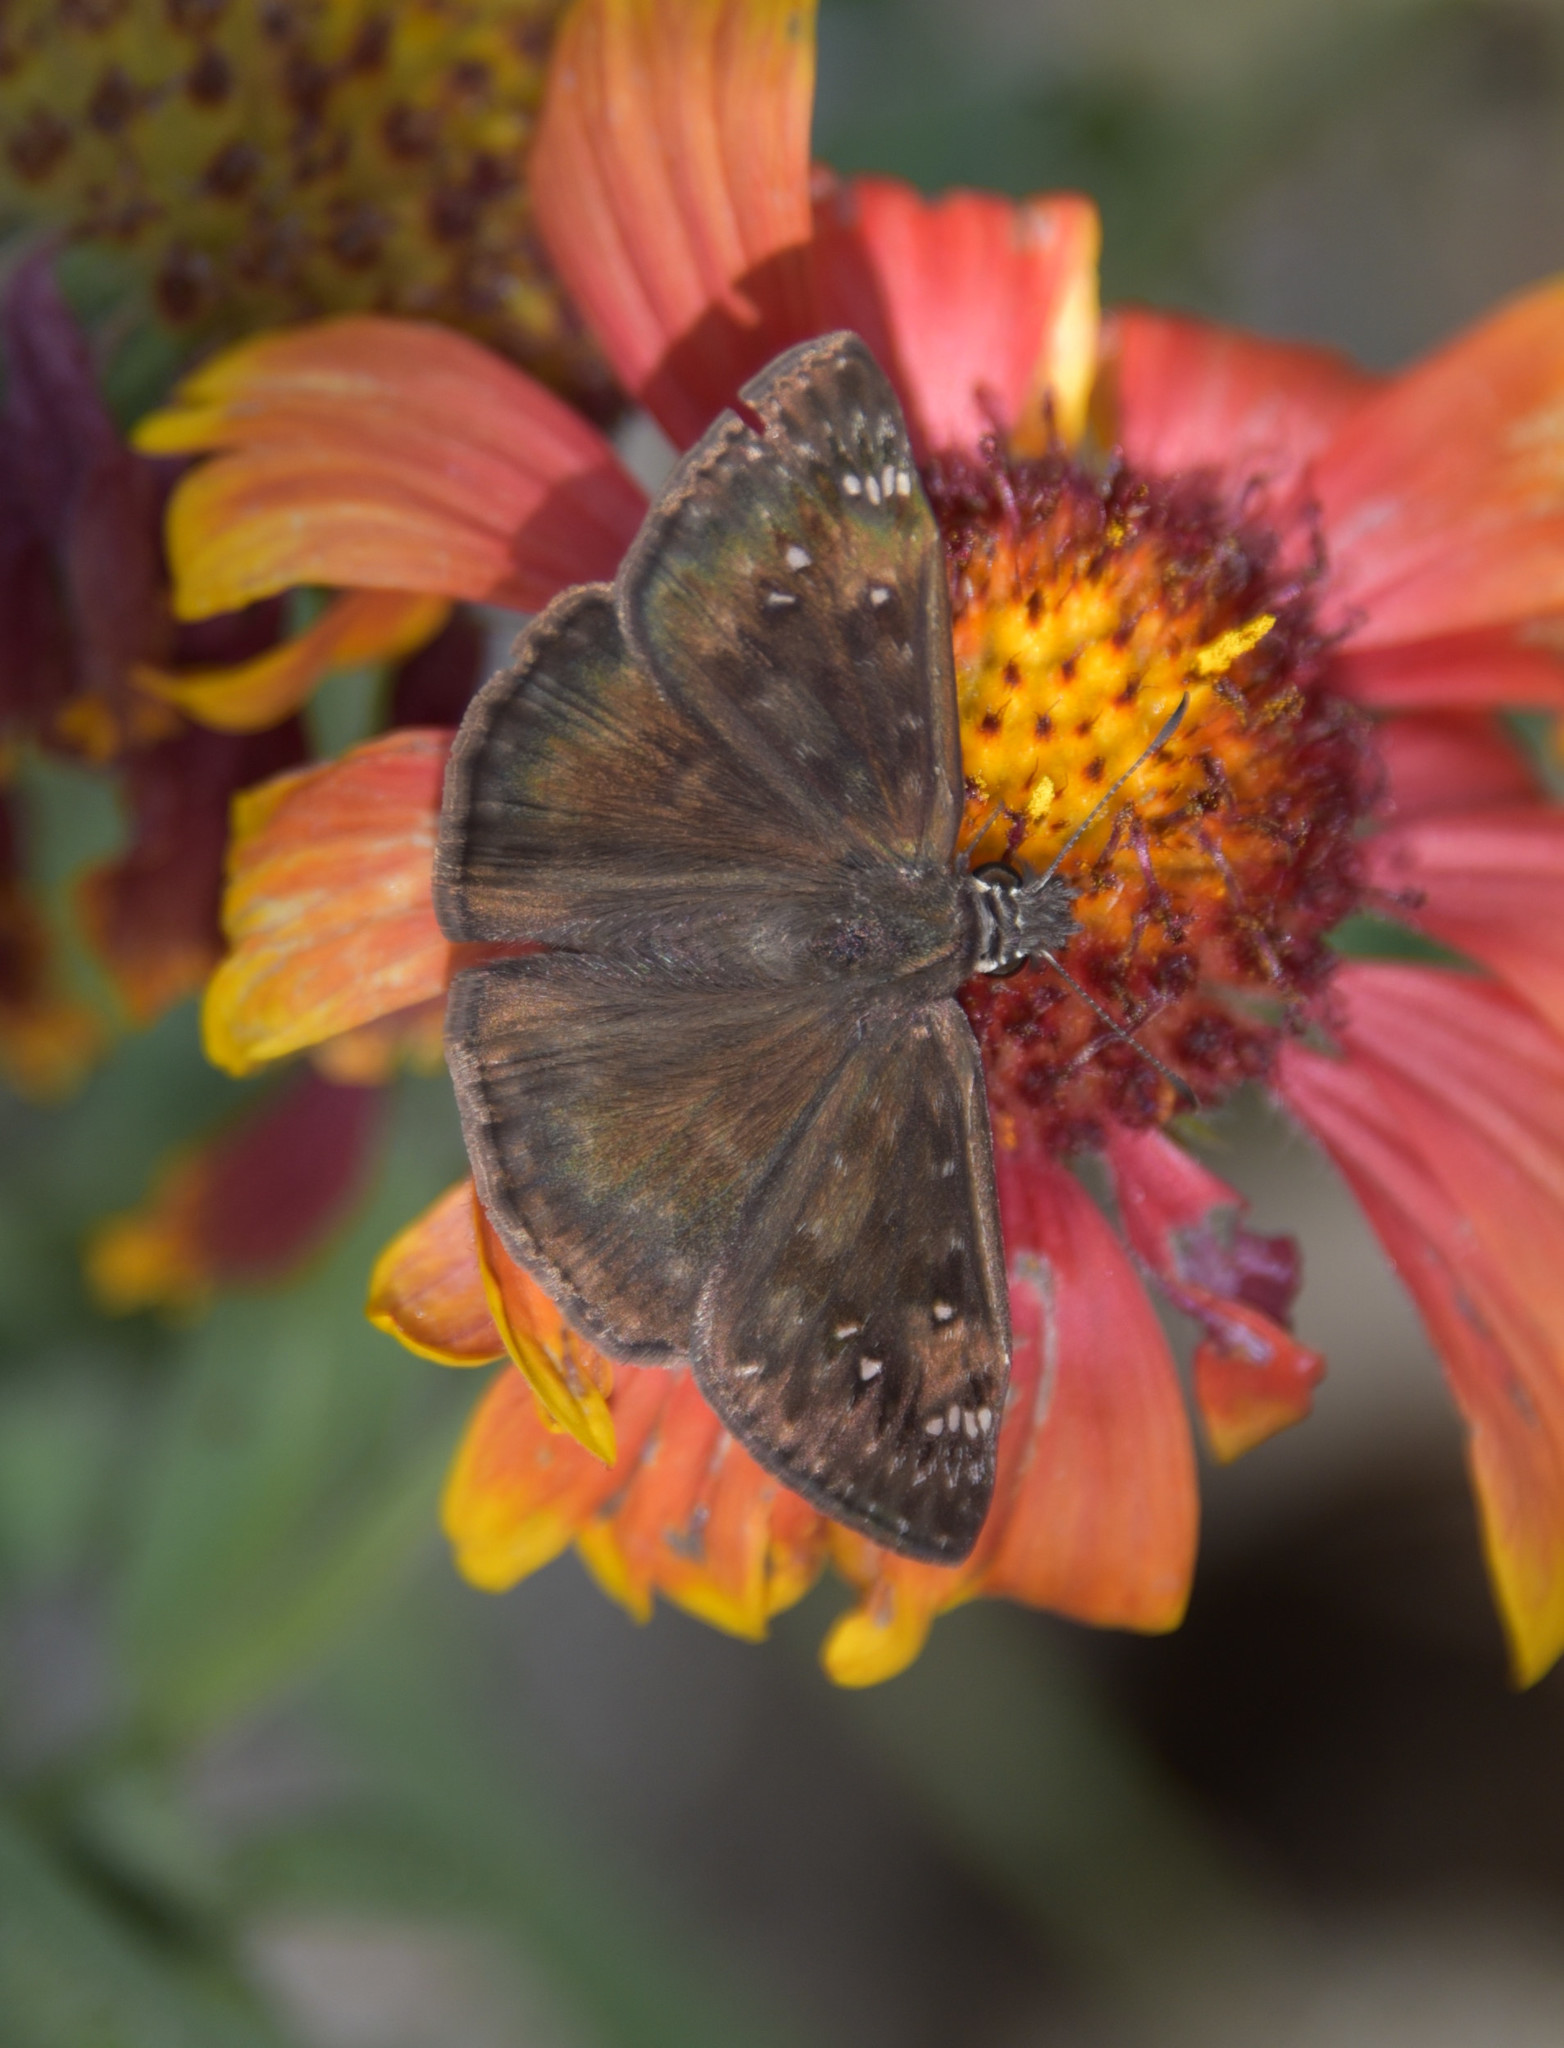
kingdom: Animalia
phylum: Arthropoda
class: Insecta
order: Lepidoptera
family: Hesperiidae
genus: Erynnis
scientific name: Erynnis horatius
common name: Horace's duskywing
